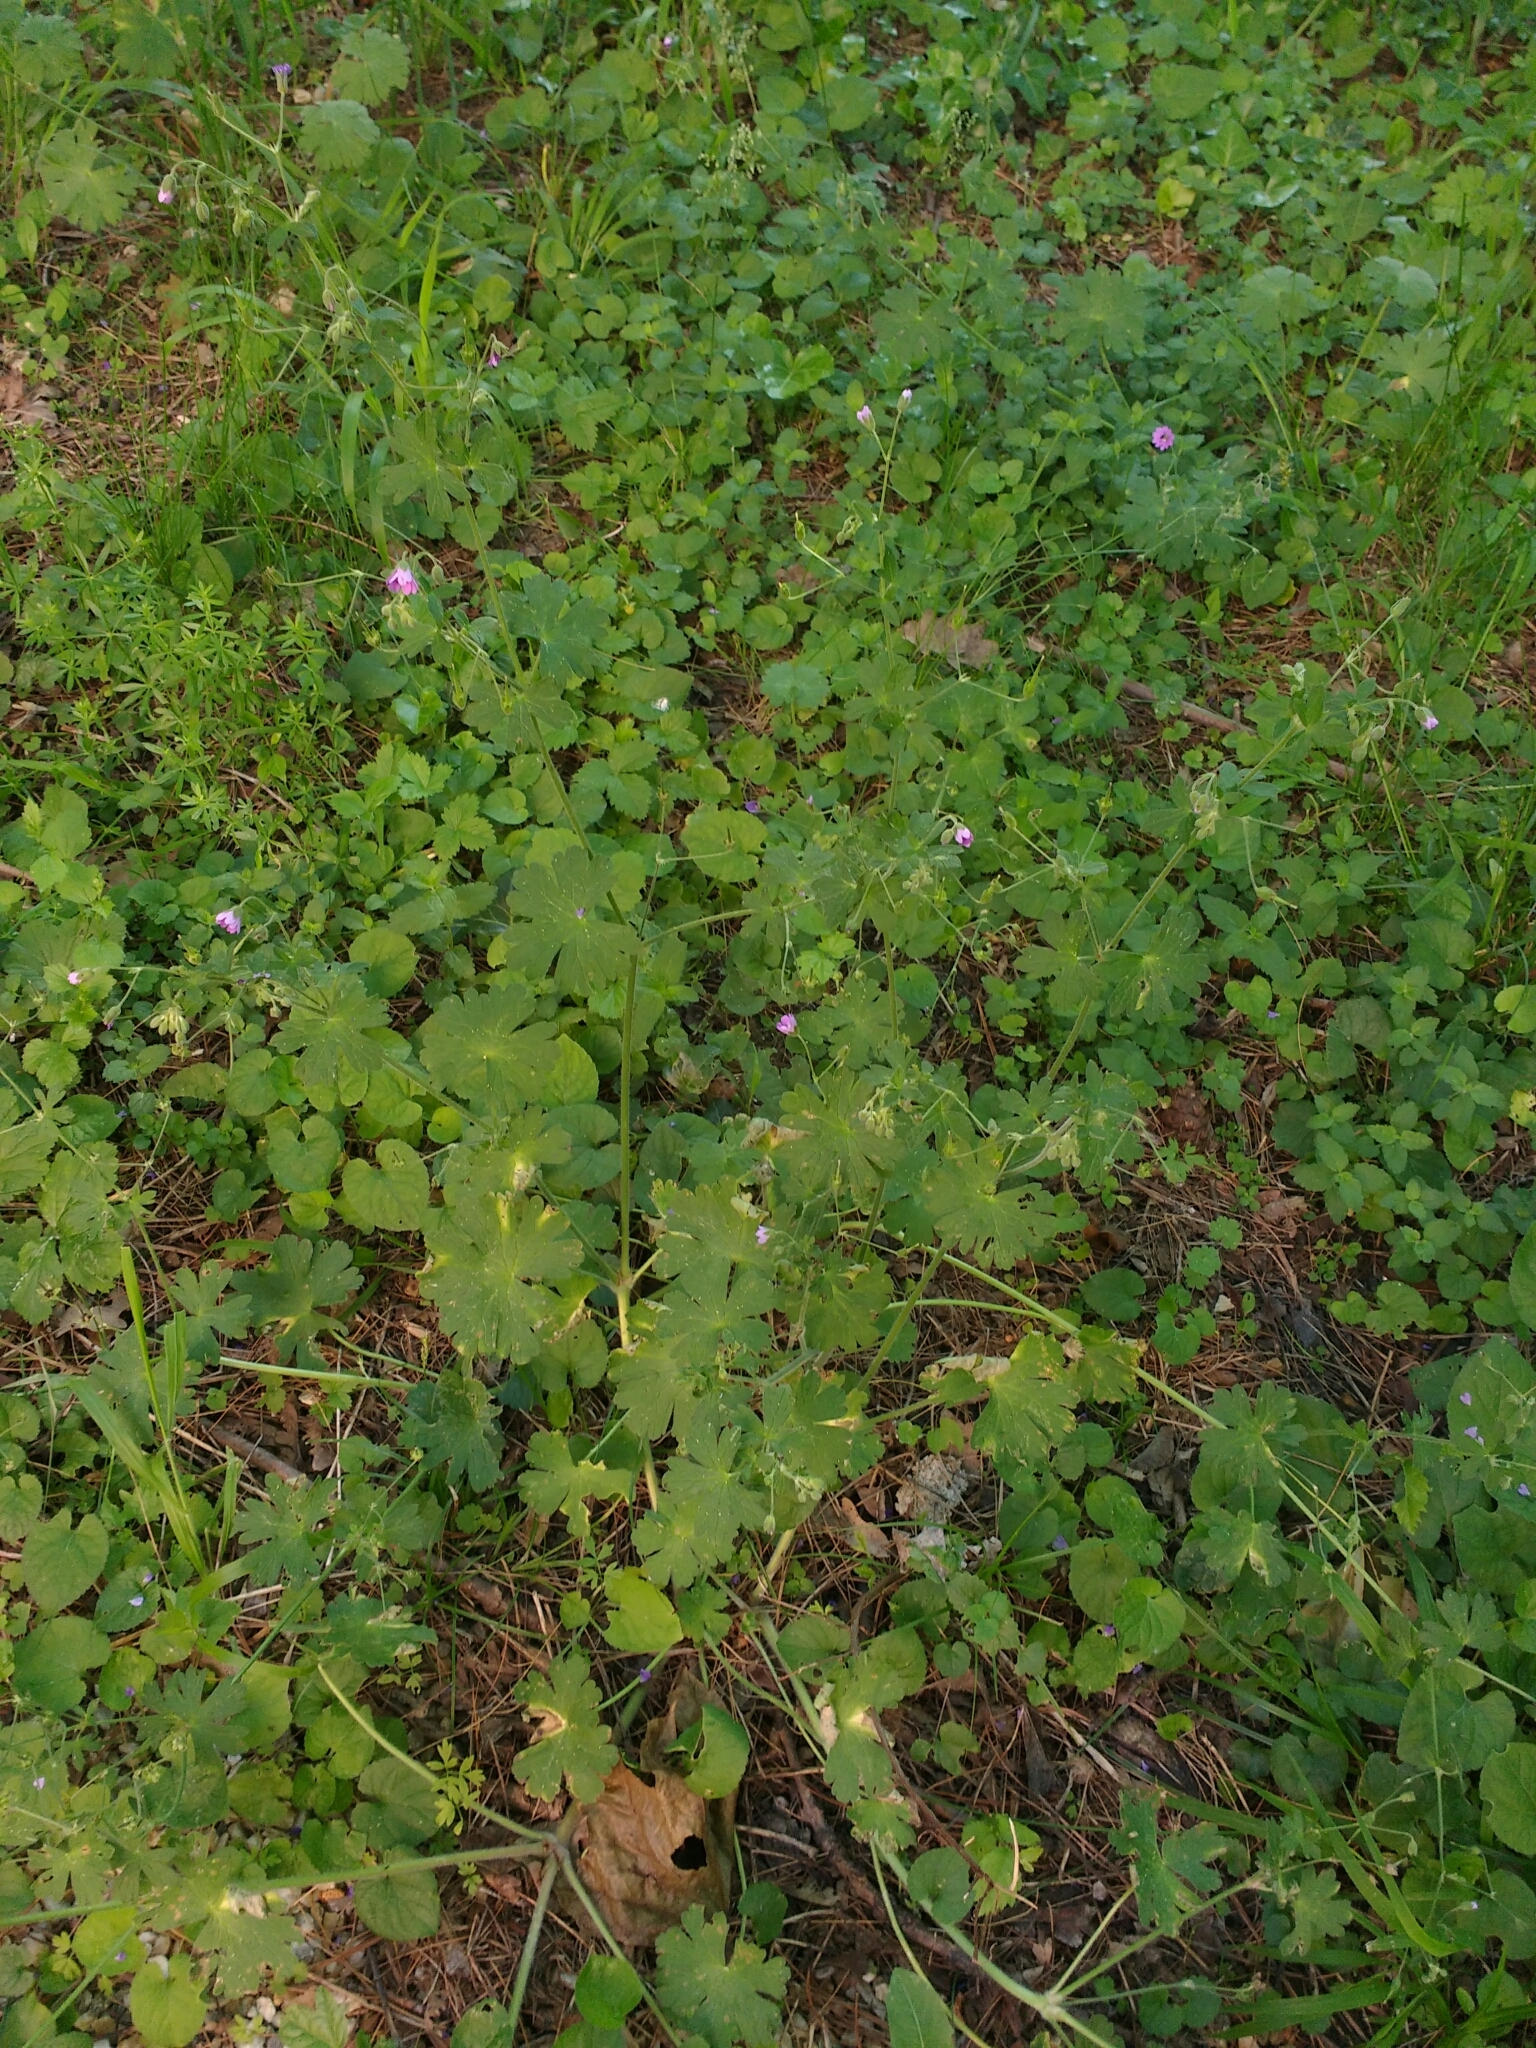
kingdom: Plantae
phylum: Tracheophyta
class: Magnoliopsida
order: Geraniales
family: Geraniaceae
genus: Geranium
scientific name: Geranium pyrenaicum
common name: Hedgerow crane's-bill
